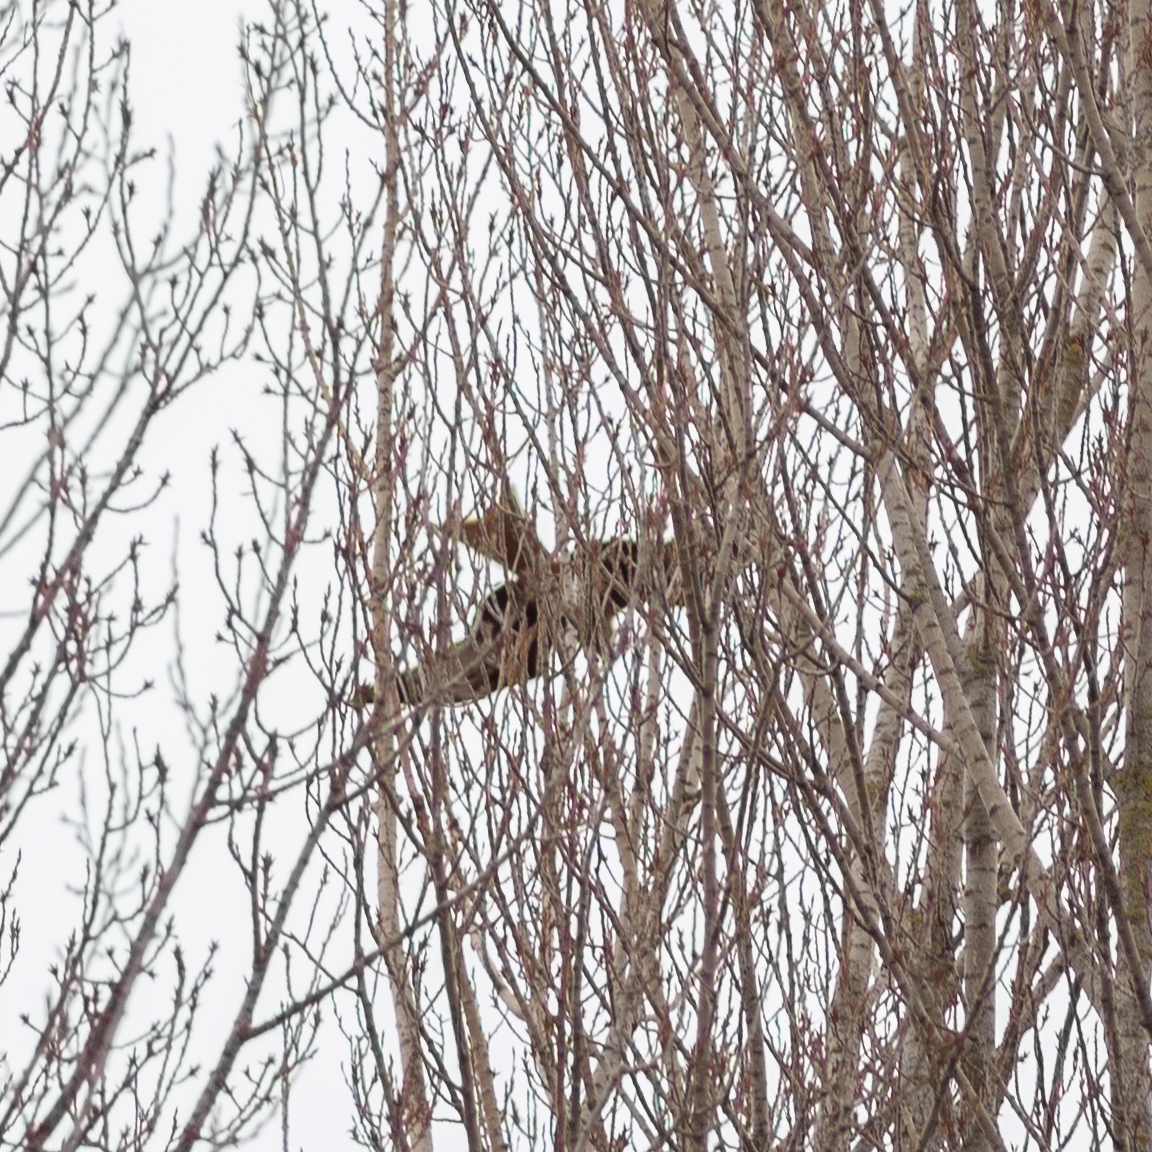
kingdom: Animalia
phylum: Chordata
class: Aves
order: Accipitriformes
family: Accipitridae
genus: Milvus
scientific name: Milvus milvus
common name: Red kite
